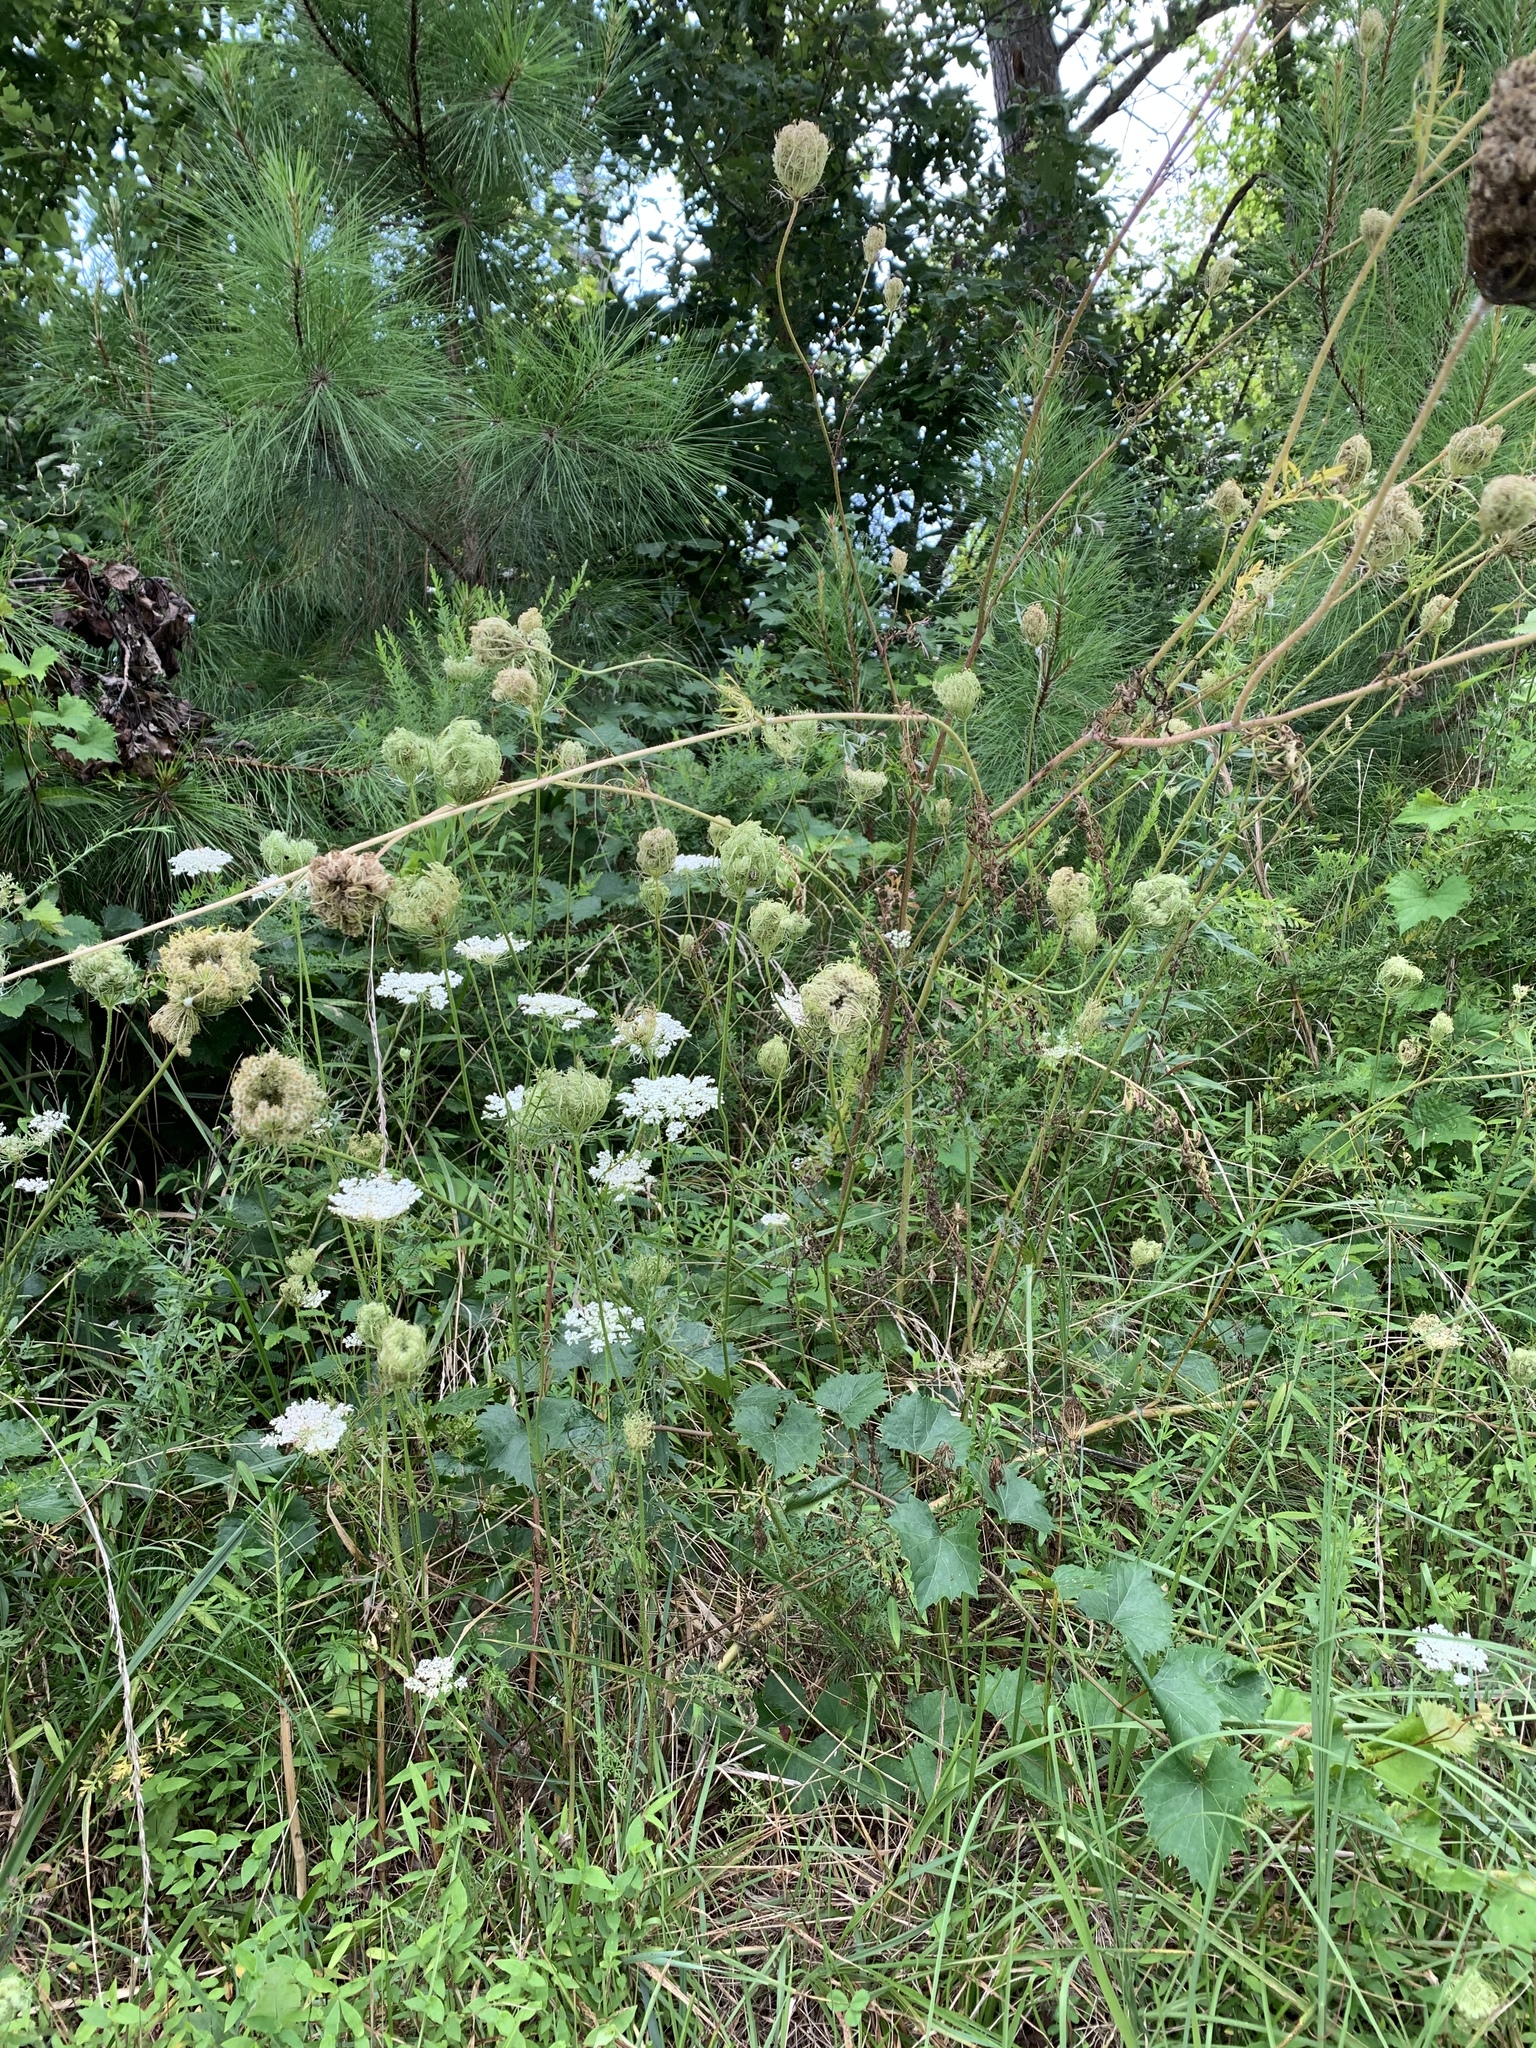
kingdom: Plantae
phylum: Tracheophyta
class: Magnoliopsida
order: Apiales
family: Apiaceae
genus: Daucus
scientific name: Daucus carota
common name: Wild carrot
